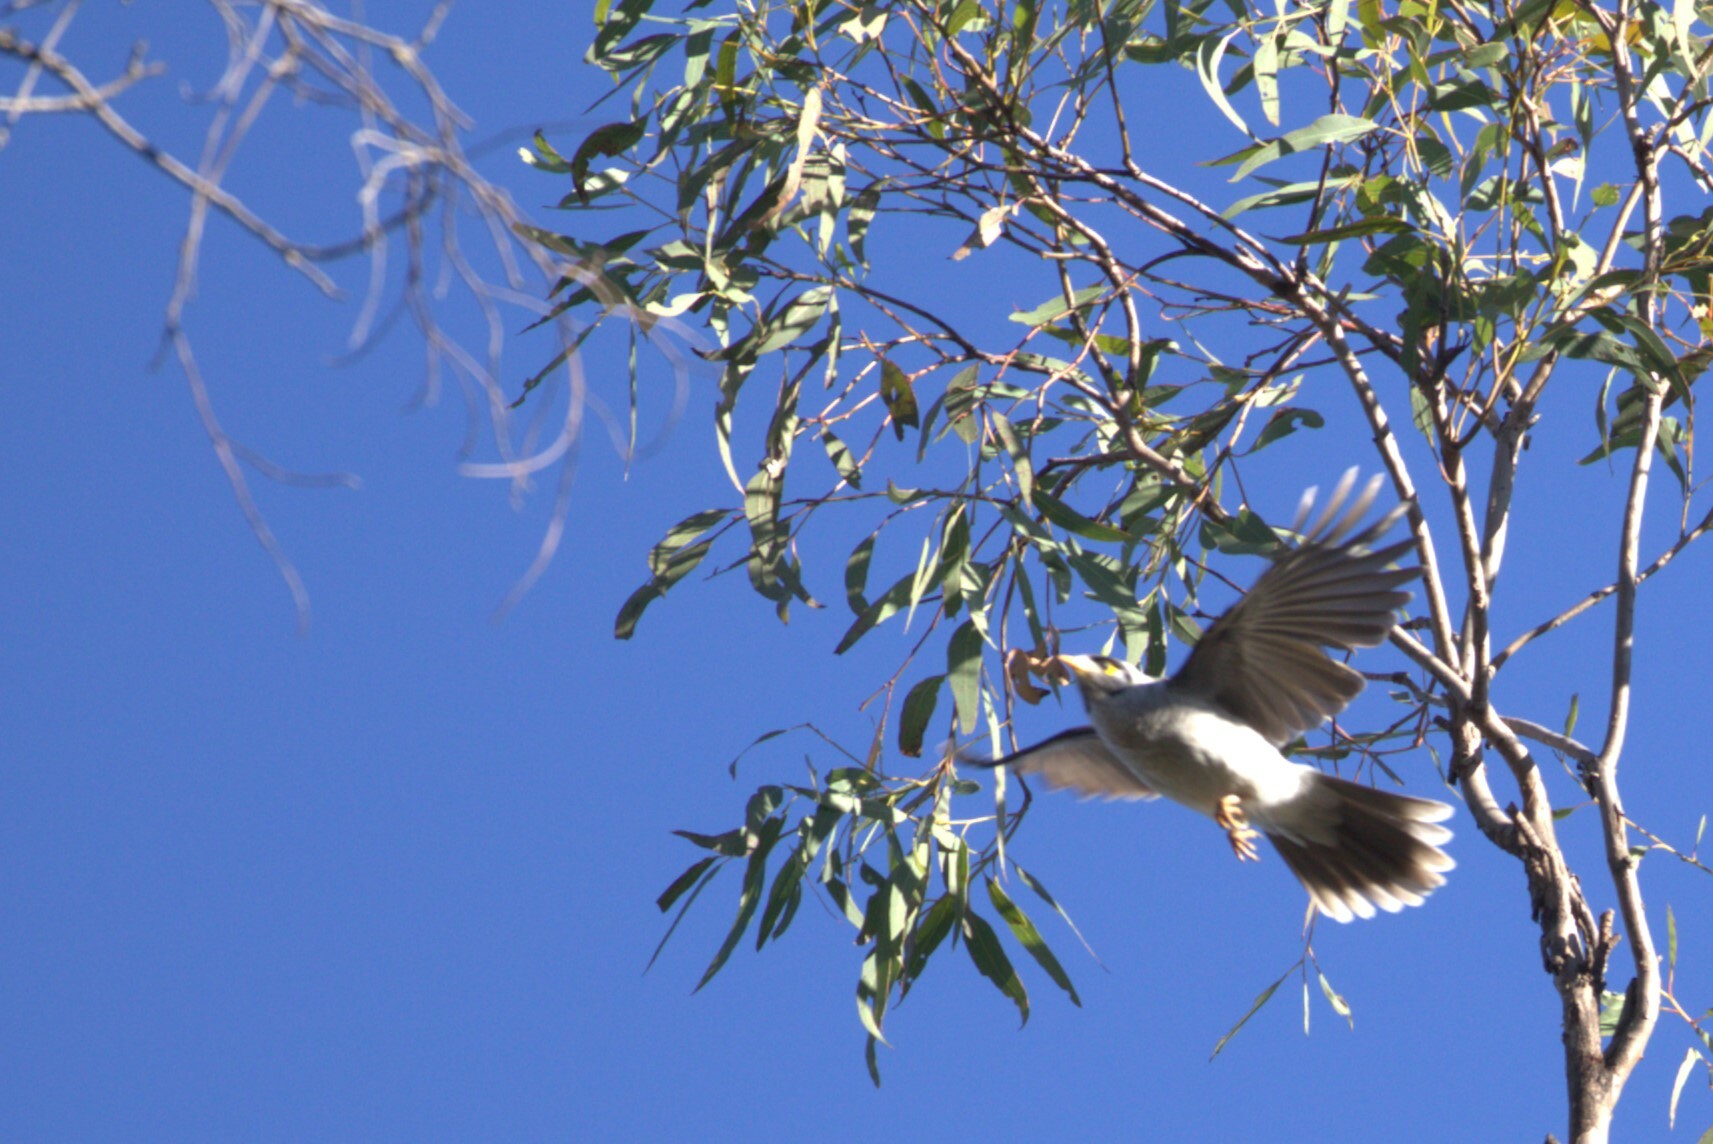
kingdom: Animalia
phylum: Chordata
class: Aves
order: Passeriformes
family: Meliphagidae
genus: Manorina
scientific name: Manorina melanocephala
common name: Noisy miner
